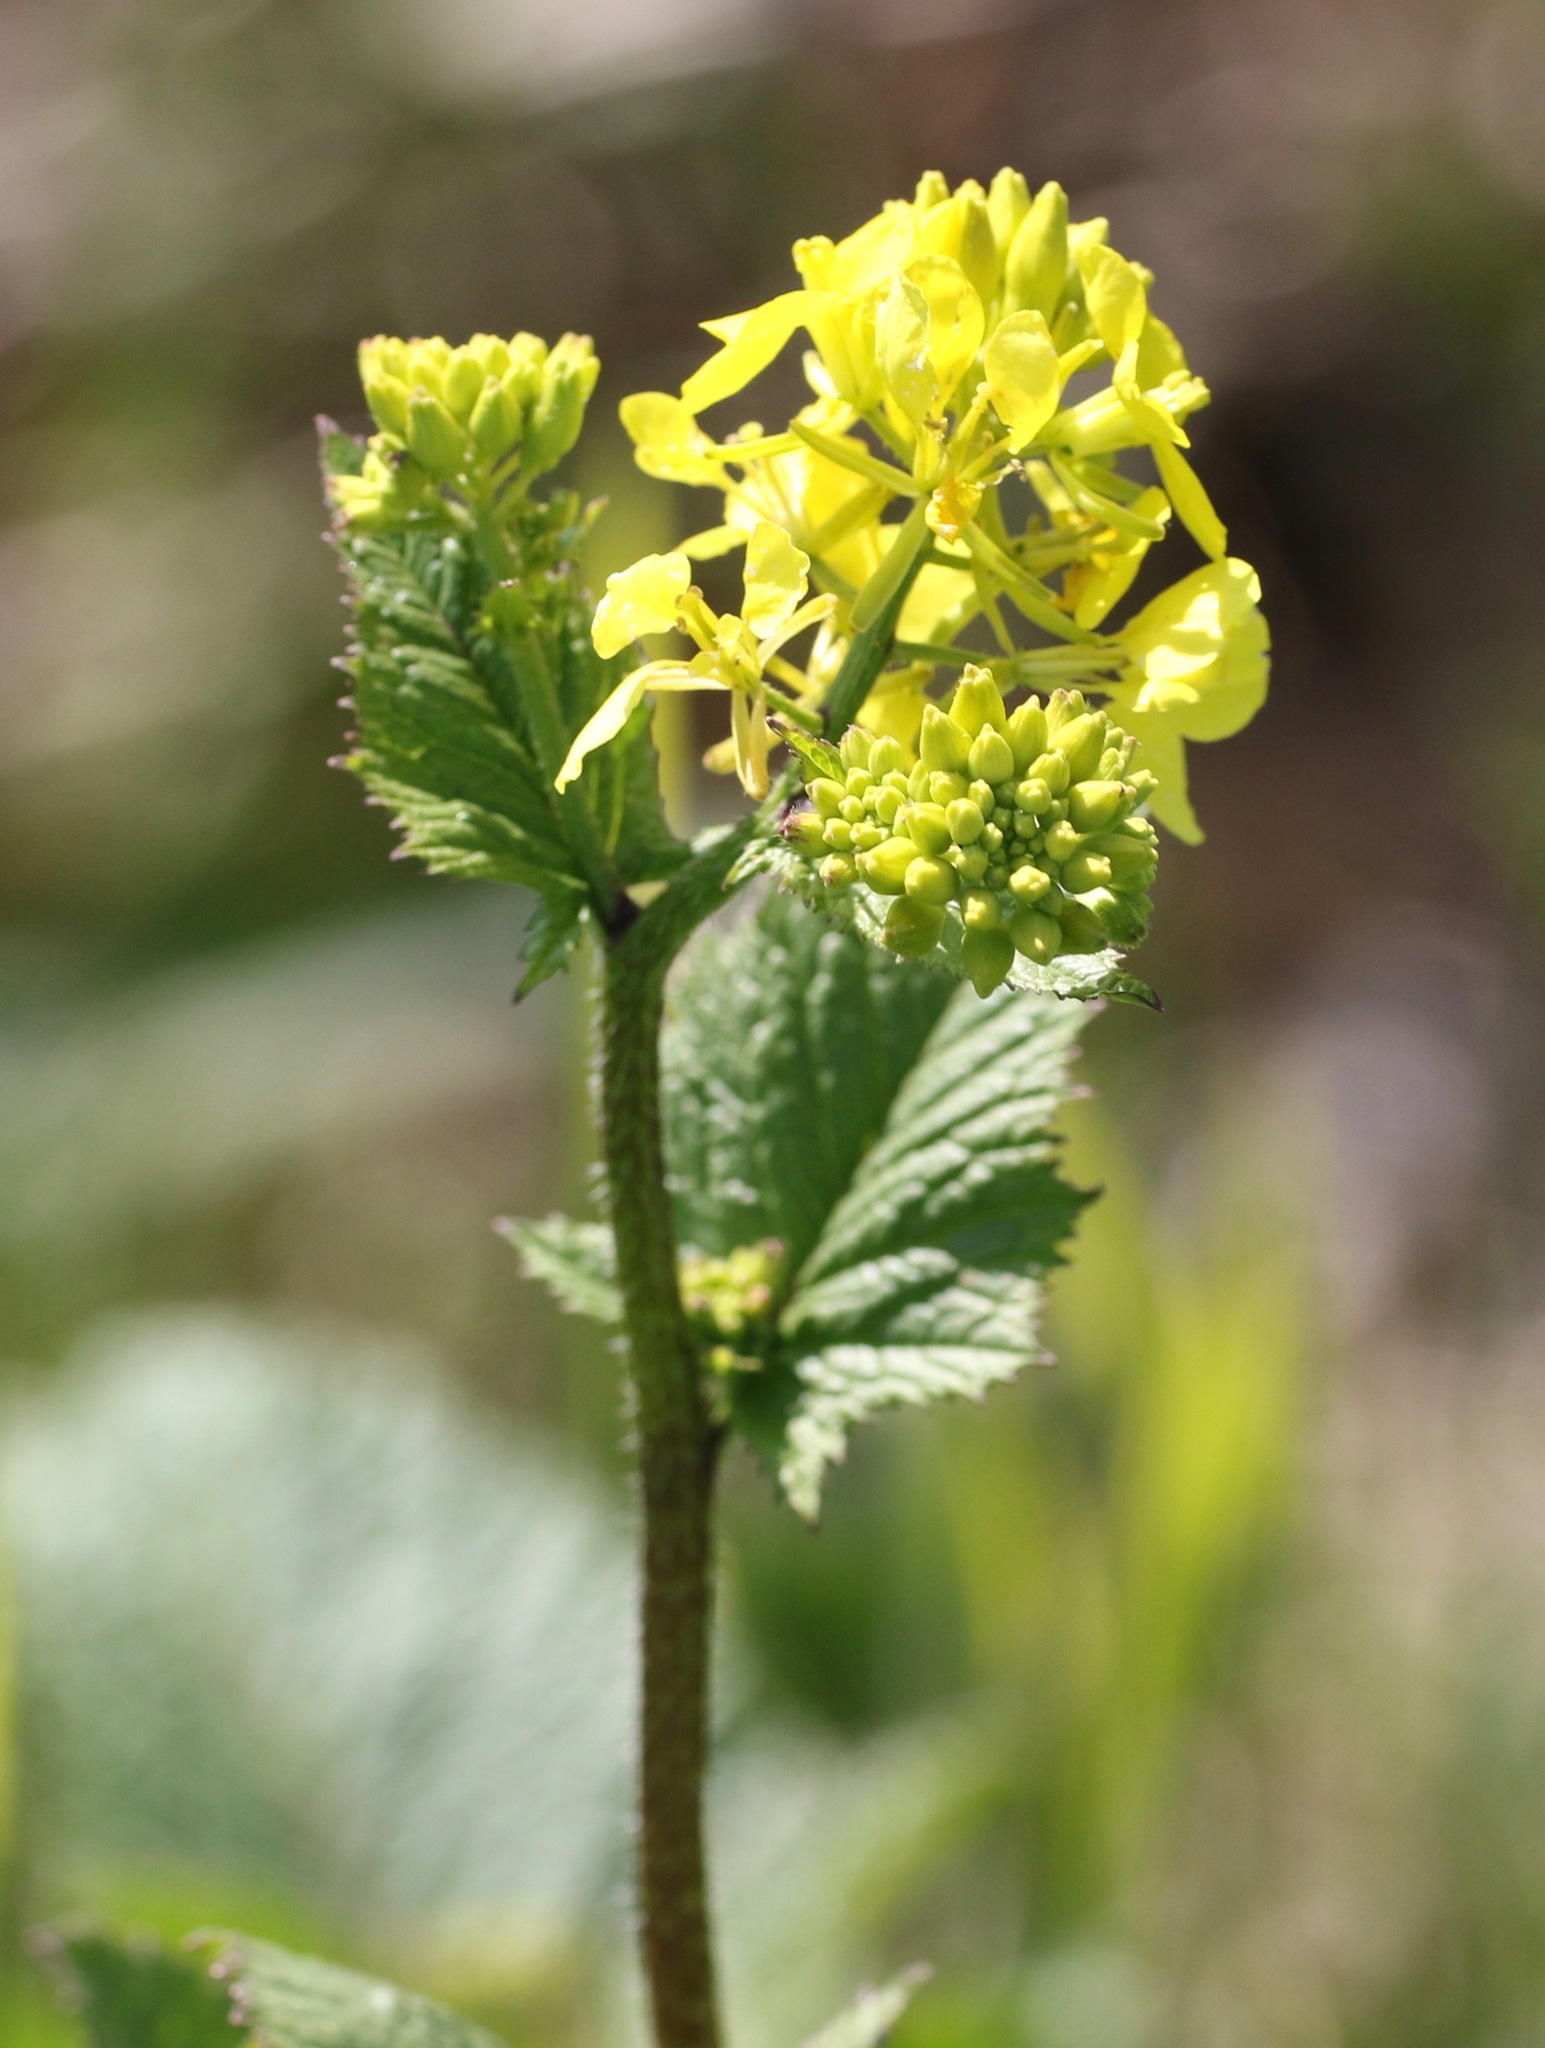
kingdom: Plantae
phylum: Tracheophyta
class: Magnoliopsida
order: Brassicales
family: Brassicaceae
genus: Sinapis
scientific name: Sinapis arvensis
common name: Charlock
